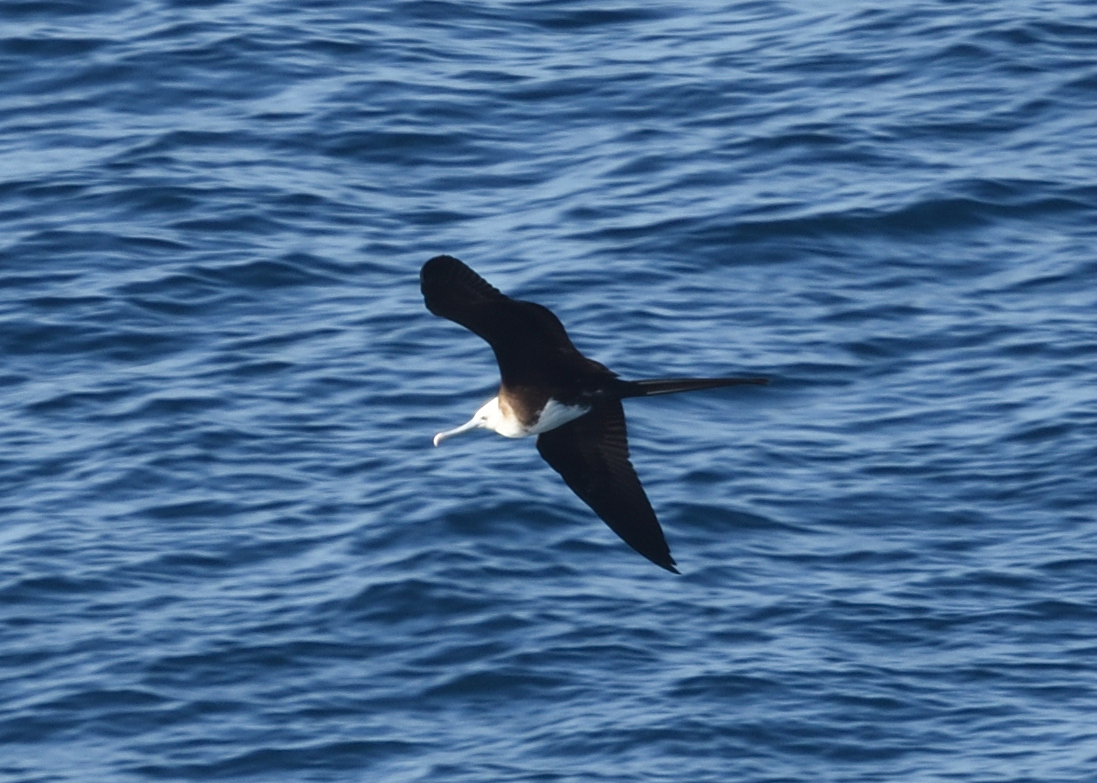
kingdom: Animalia
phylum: Chordata
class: Aves
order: Suliformes
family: Fregatidae
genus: Fregata
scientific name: Fregata magnificens
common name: Magnificent frigatebird
